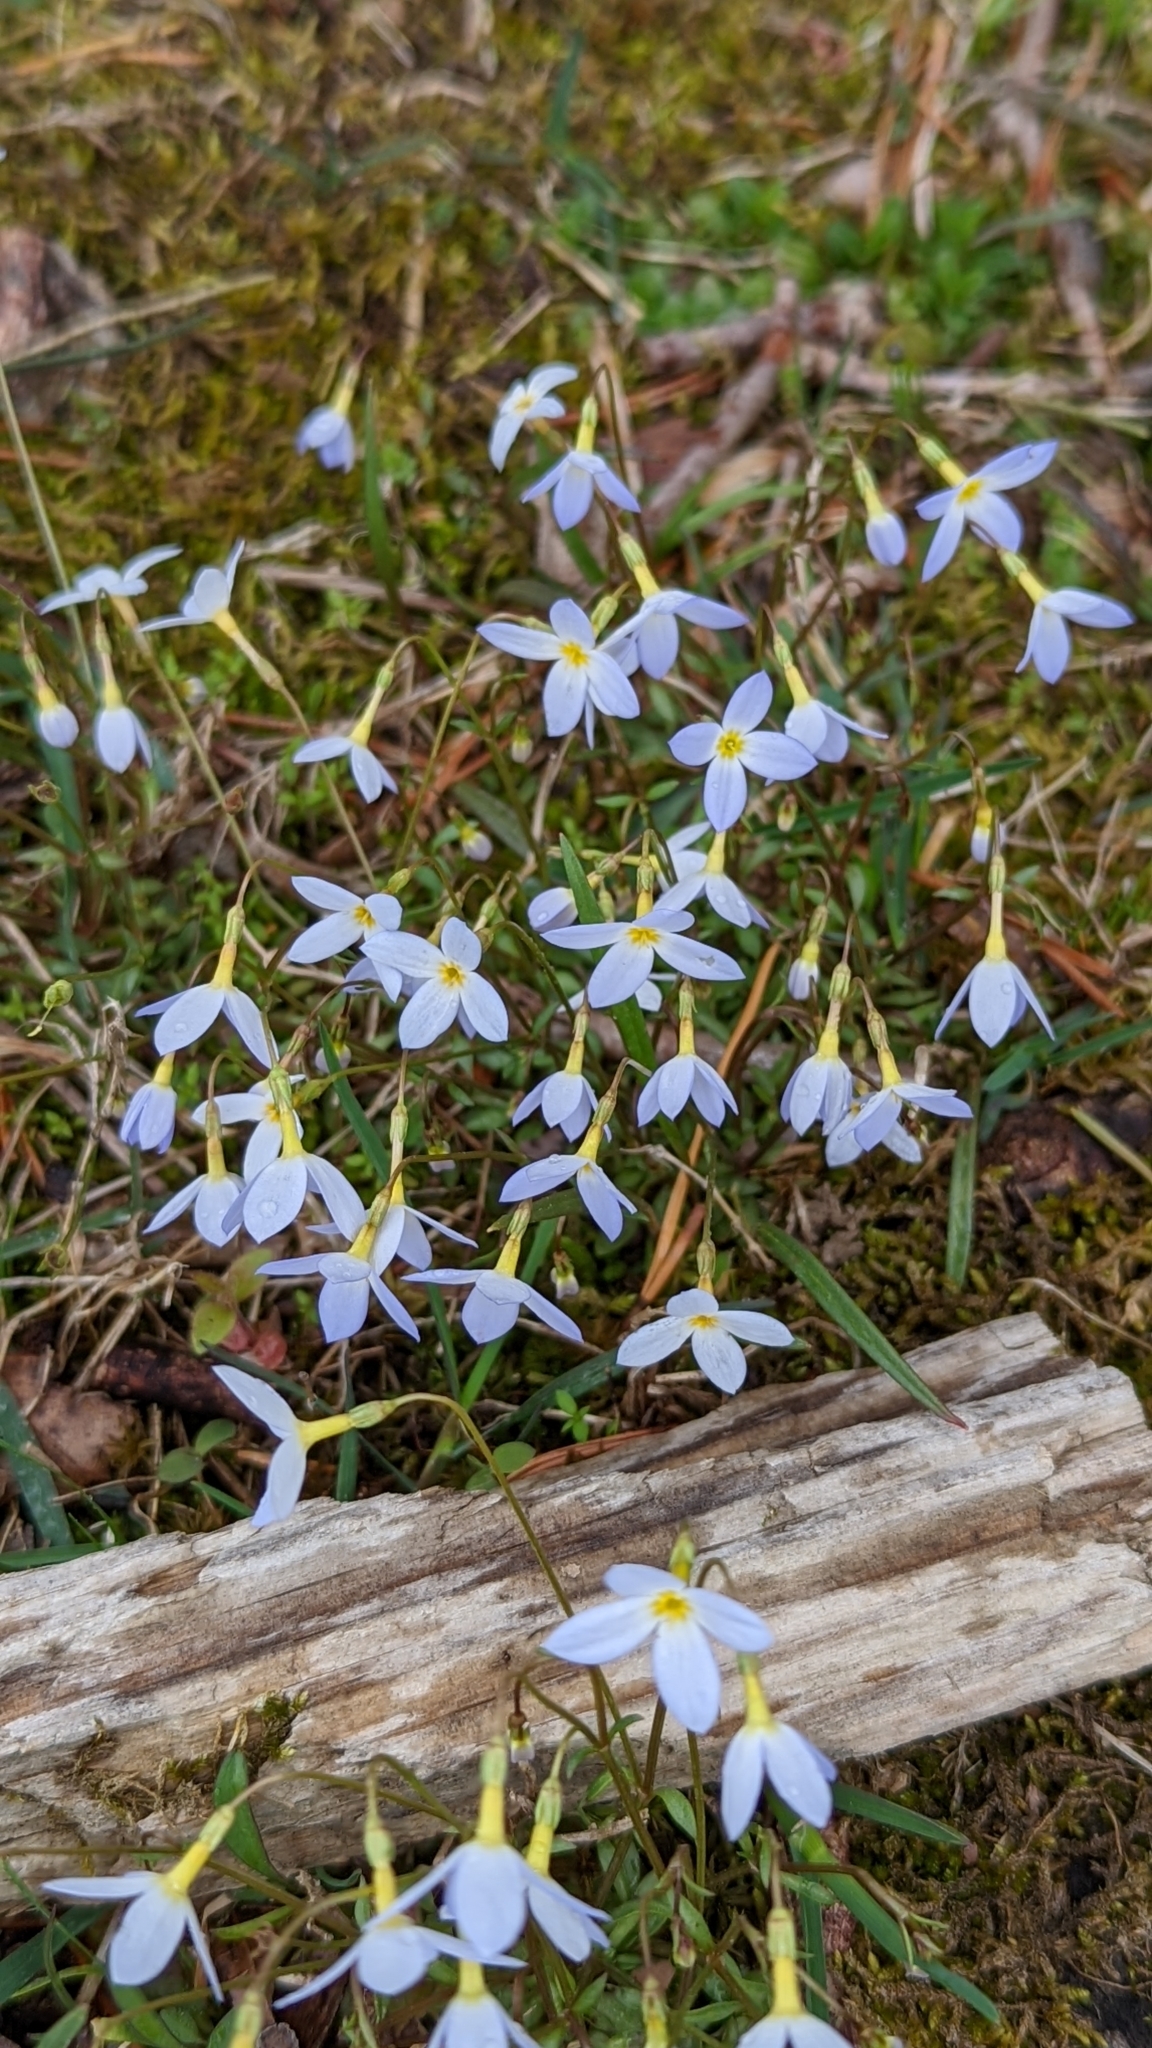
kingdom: Plantae
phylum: Tracheophyta
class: Magnoliopsida
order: Gentianales
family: Rubiaceae
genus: Houstonia
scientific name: Houstonia caerulea
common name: Bluets
